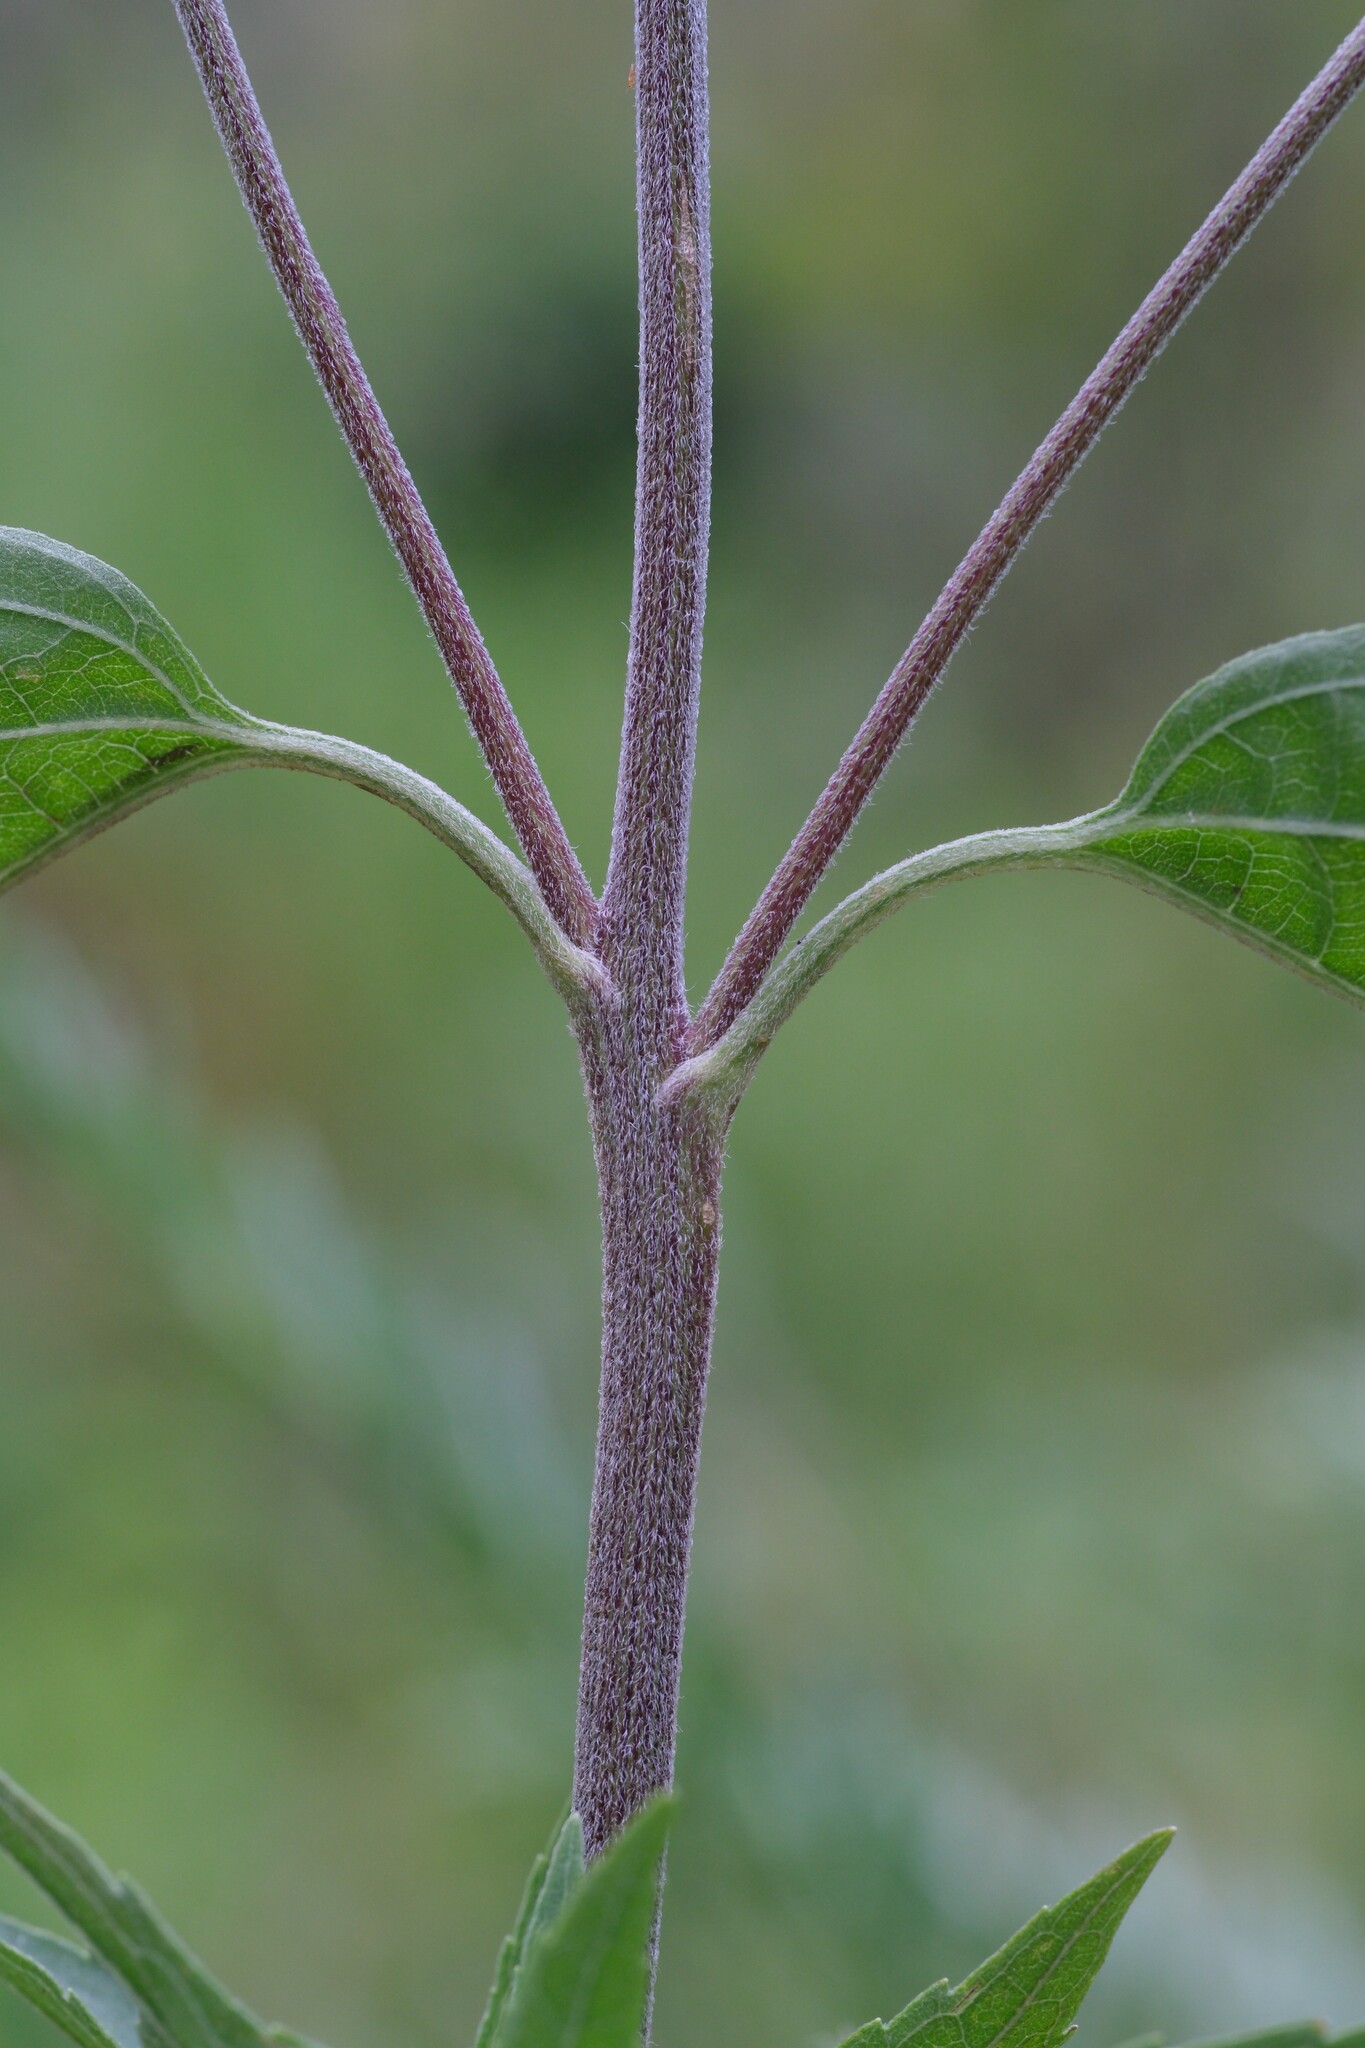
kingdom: Plantae
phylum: Tracheophyta
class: Magnoliopsida
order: Asterales
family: Asteraceae
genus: Eupatorium
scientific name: Eupatorium serotinum
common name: Late boneset
